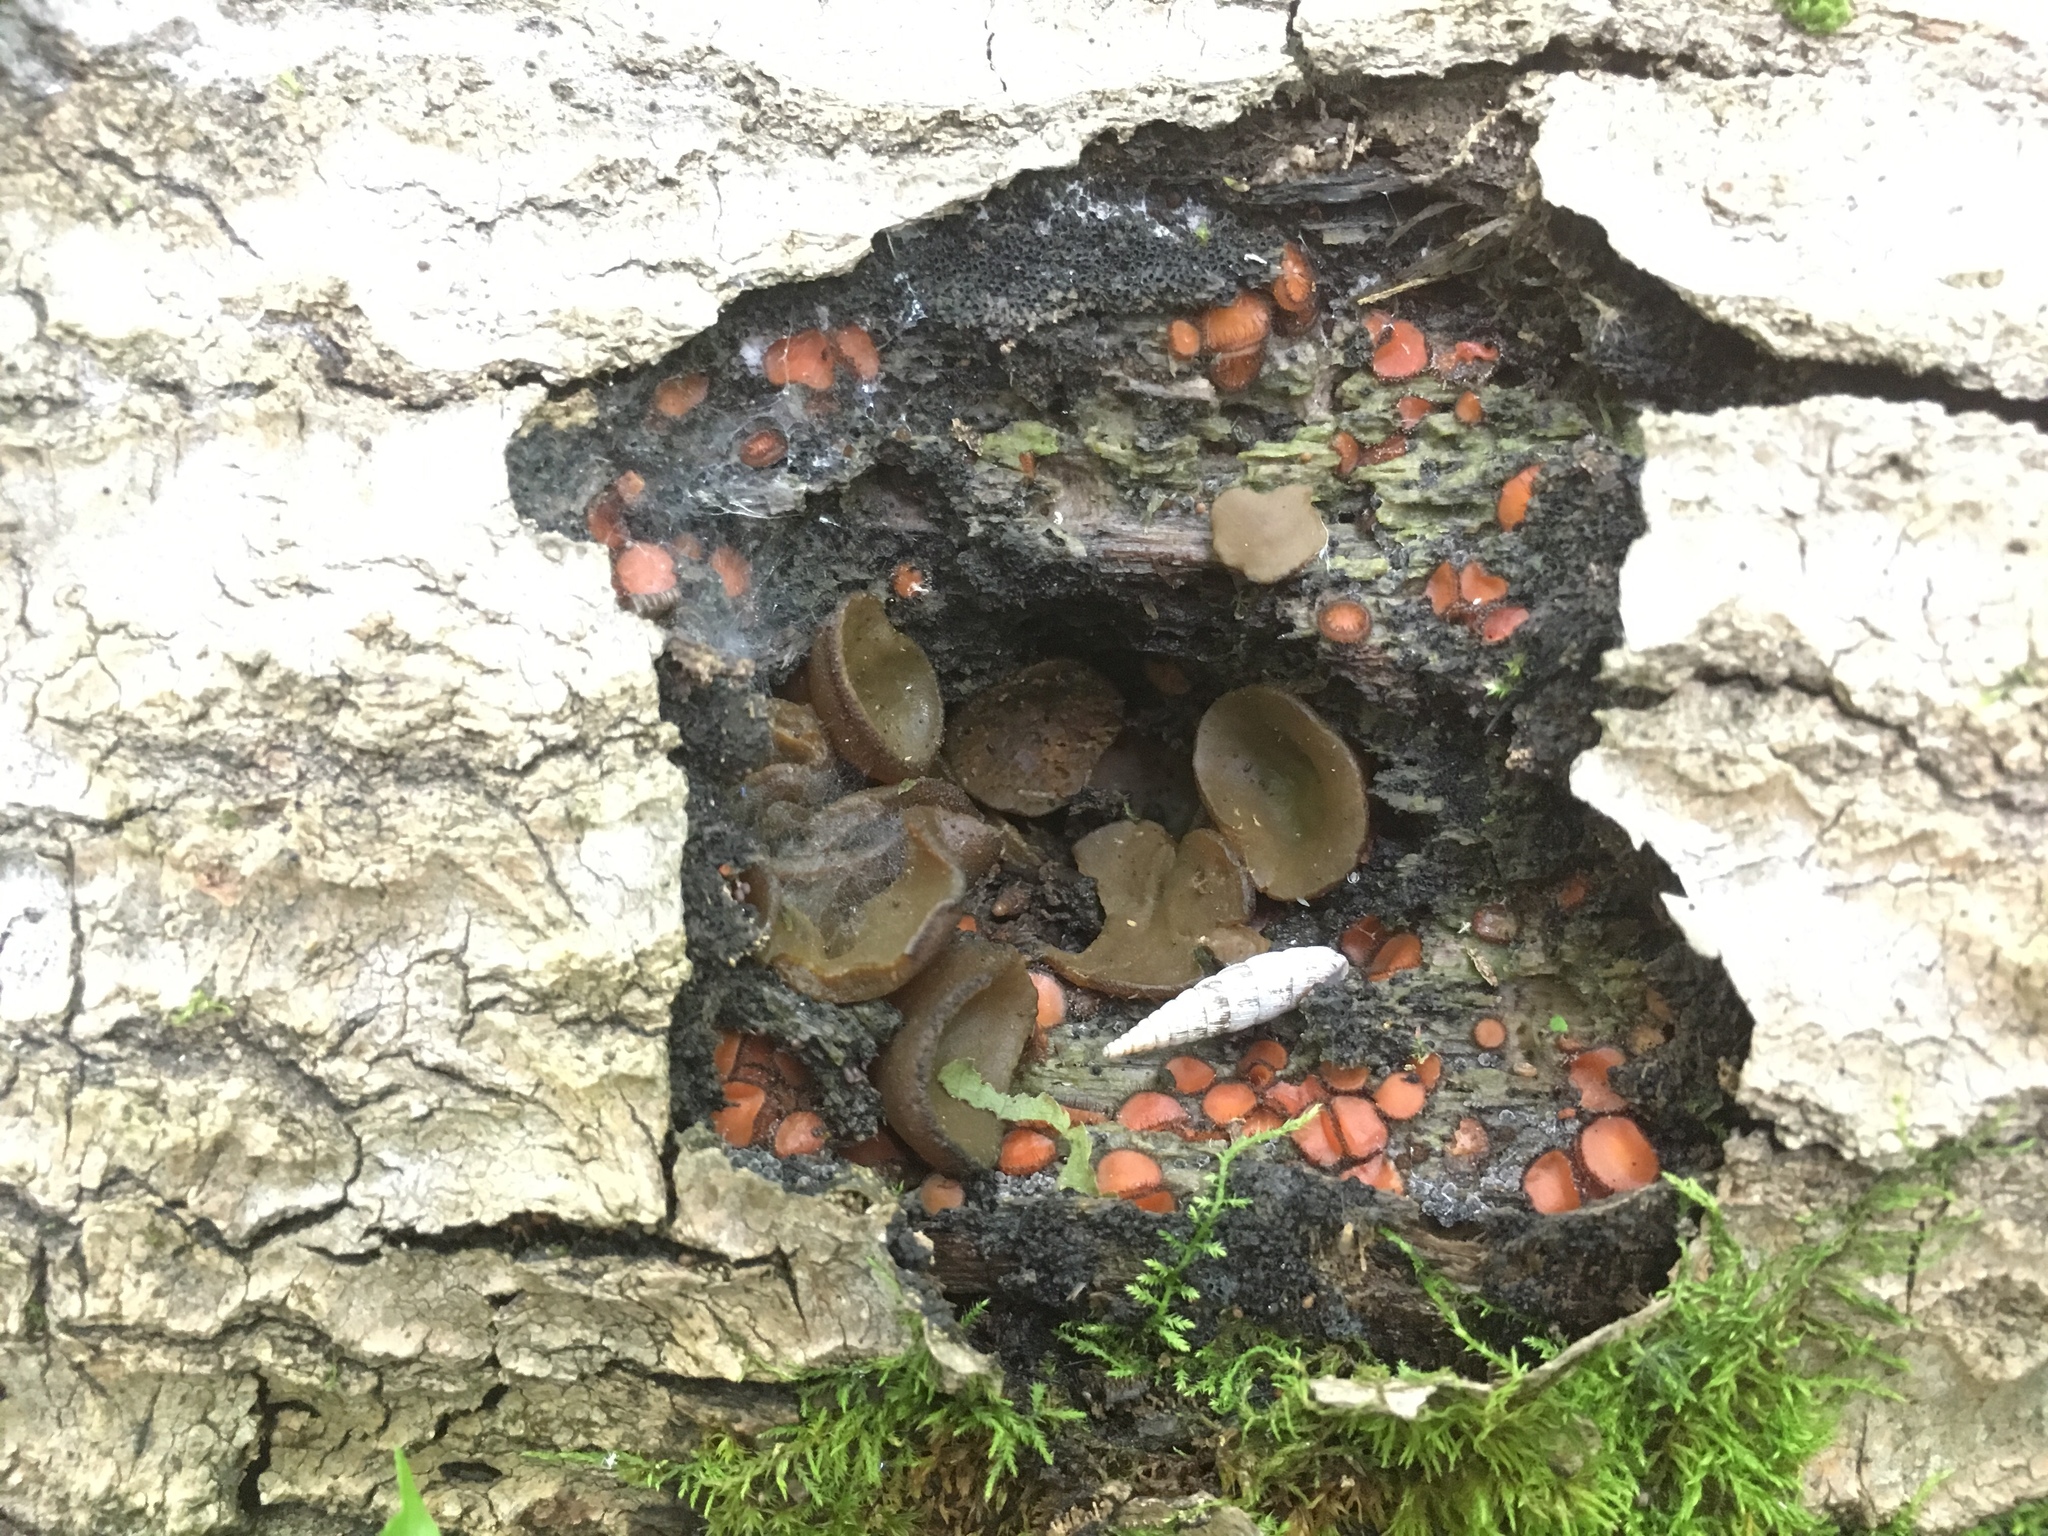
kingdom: Fungi
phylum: Ascomycota
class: Pezizomycetes
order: Pezizales
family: Pyronemataceae
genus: Scutellinia
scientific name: Scutellinia scutellata
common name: Common eyelash
